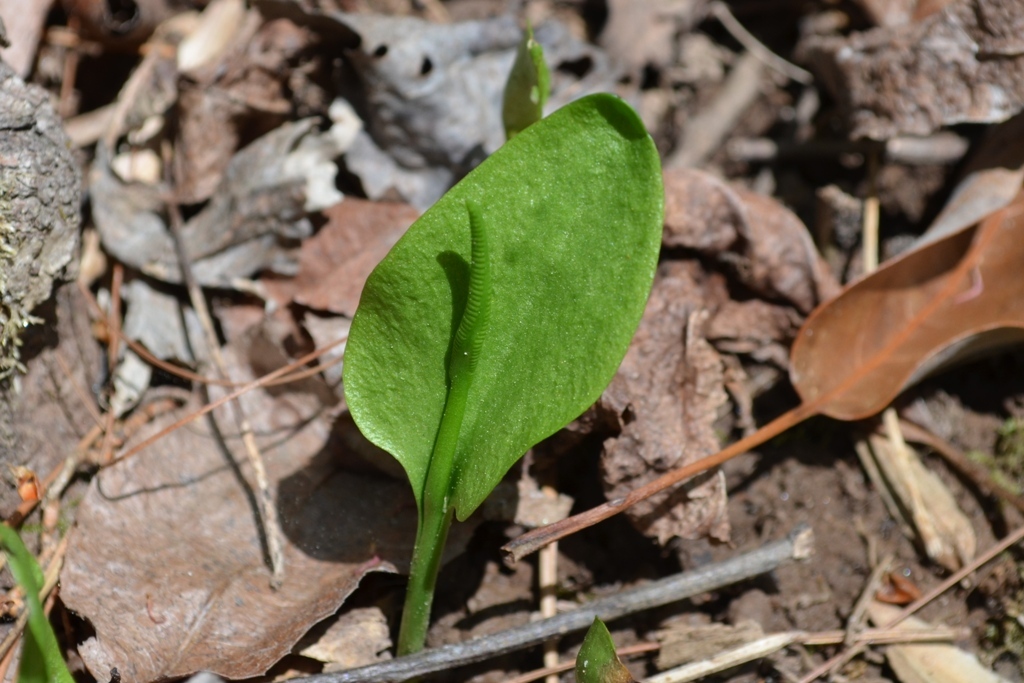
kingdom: Plantae
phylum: Tracheophyta
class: Polypodiopsida
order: Ophioglossales
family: Ophioglossaceae
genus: Ophioglossum
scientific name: Ophioglossum vulgatum
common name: Adder's-tongue
